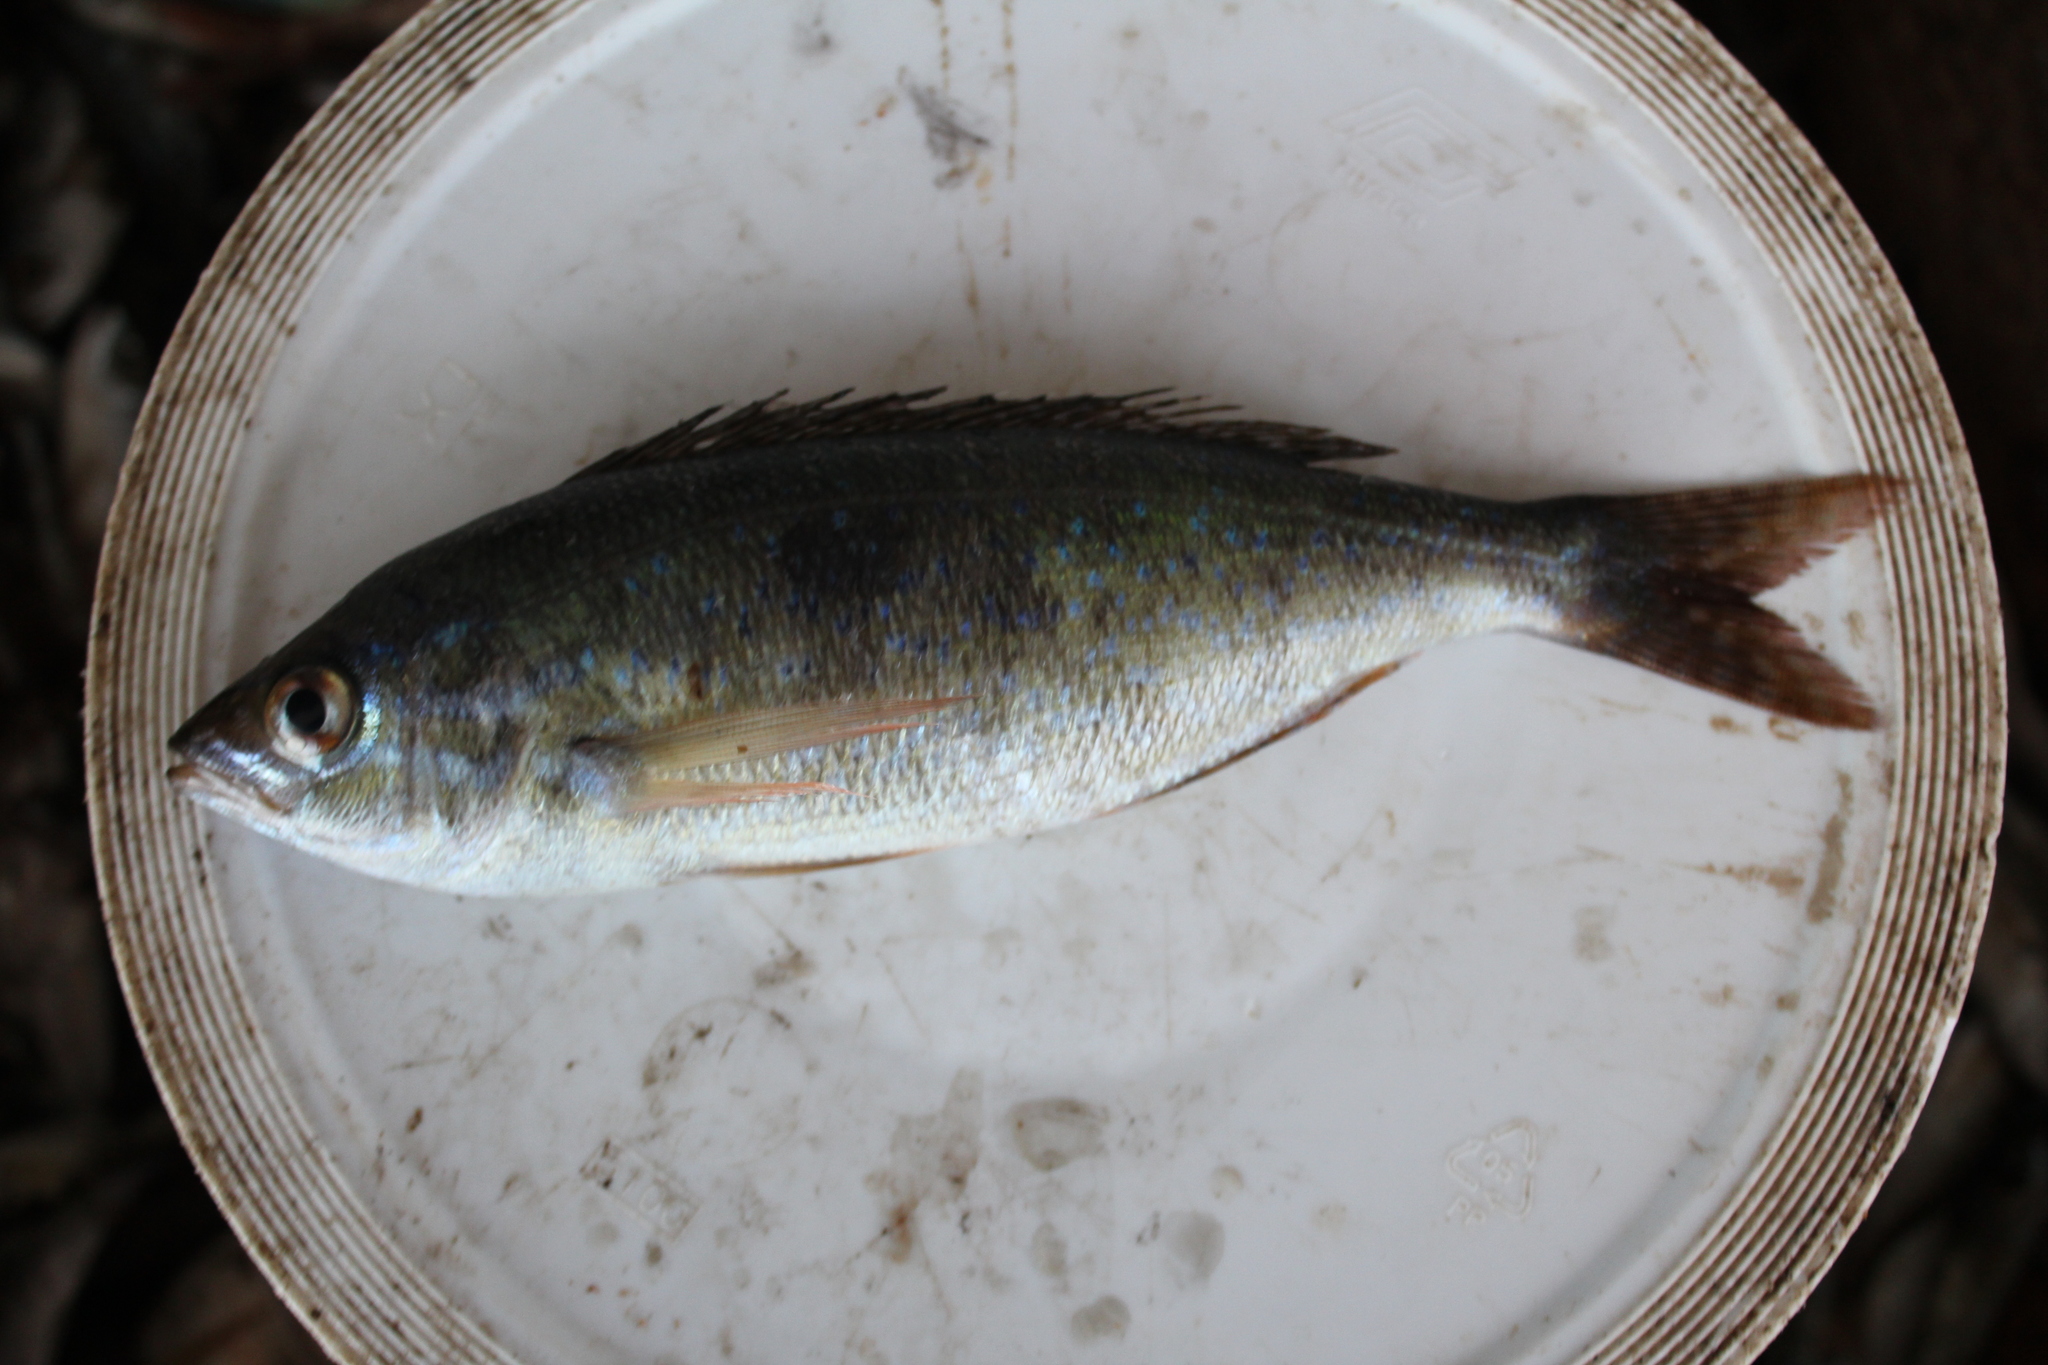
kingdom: Animalia
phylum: Chordata
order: Perciformes
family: Sparidae
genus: Spicara
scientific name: Spicara maena
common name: Blotched picarel
